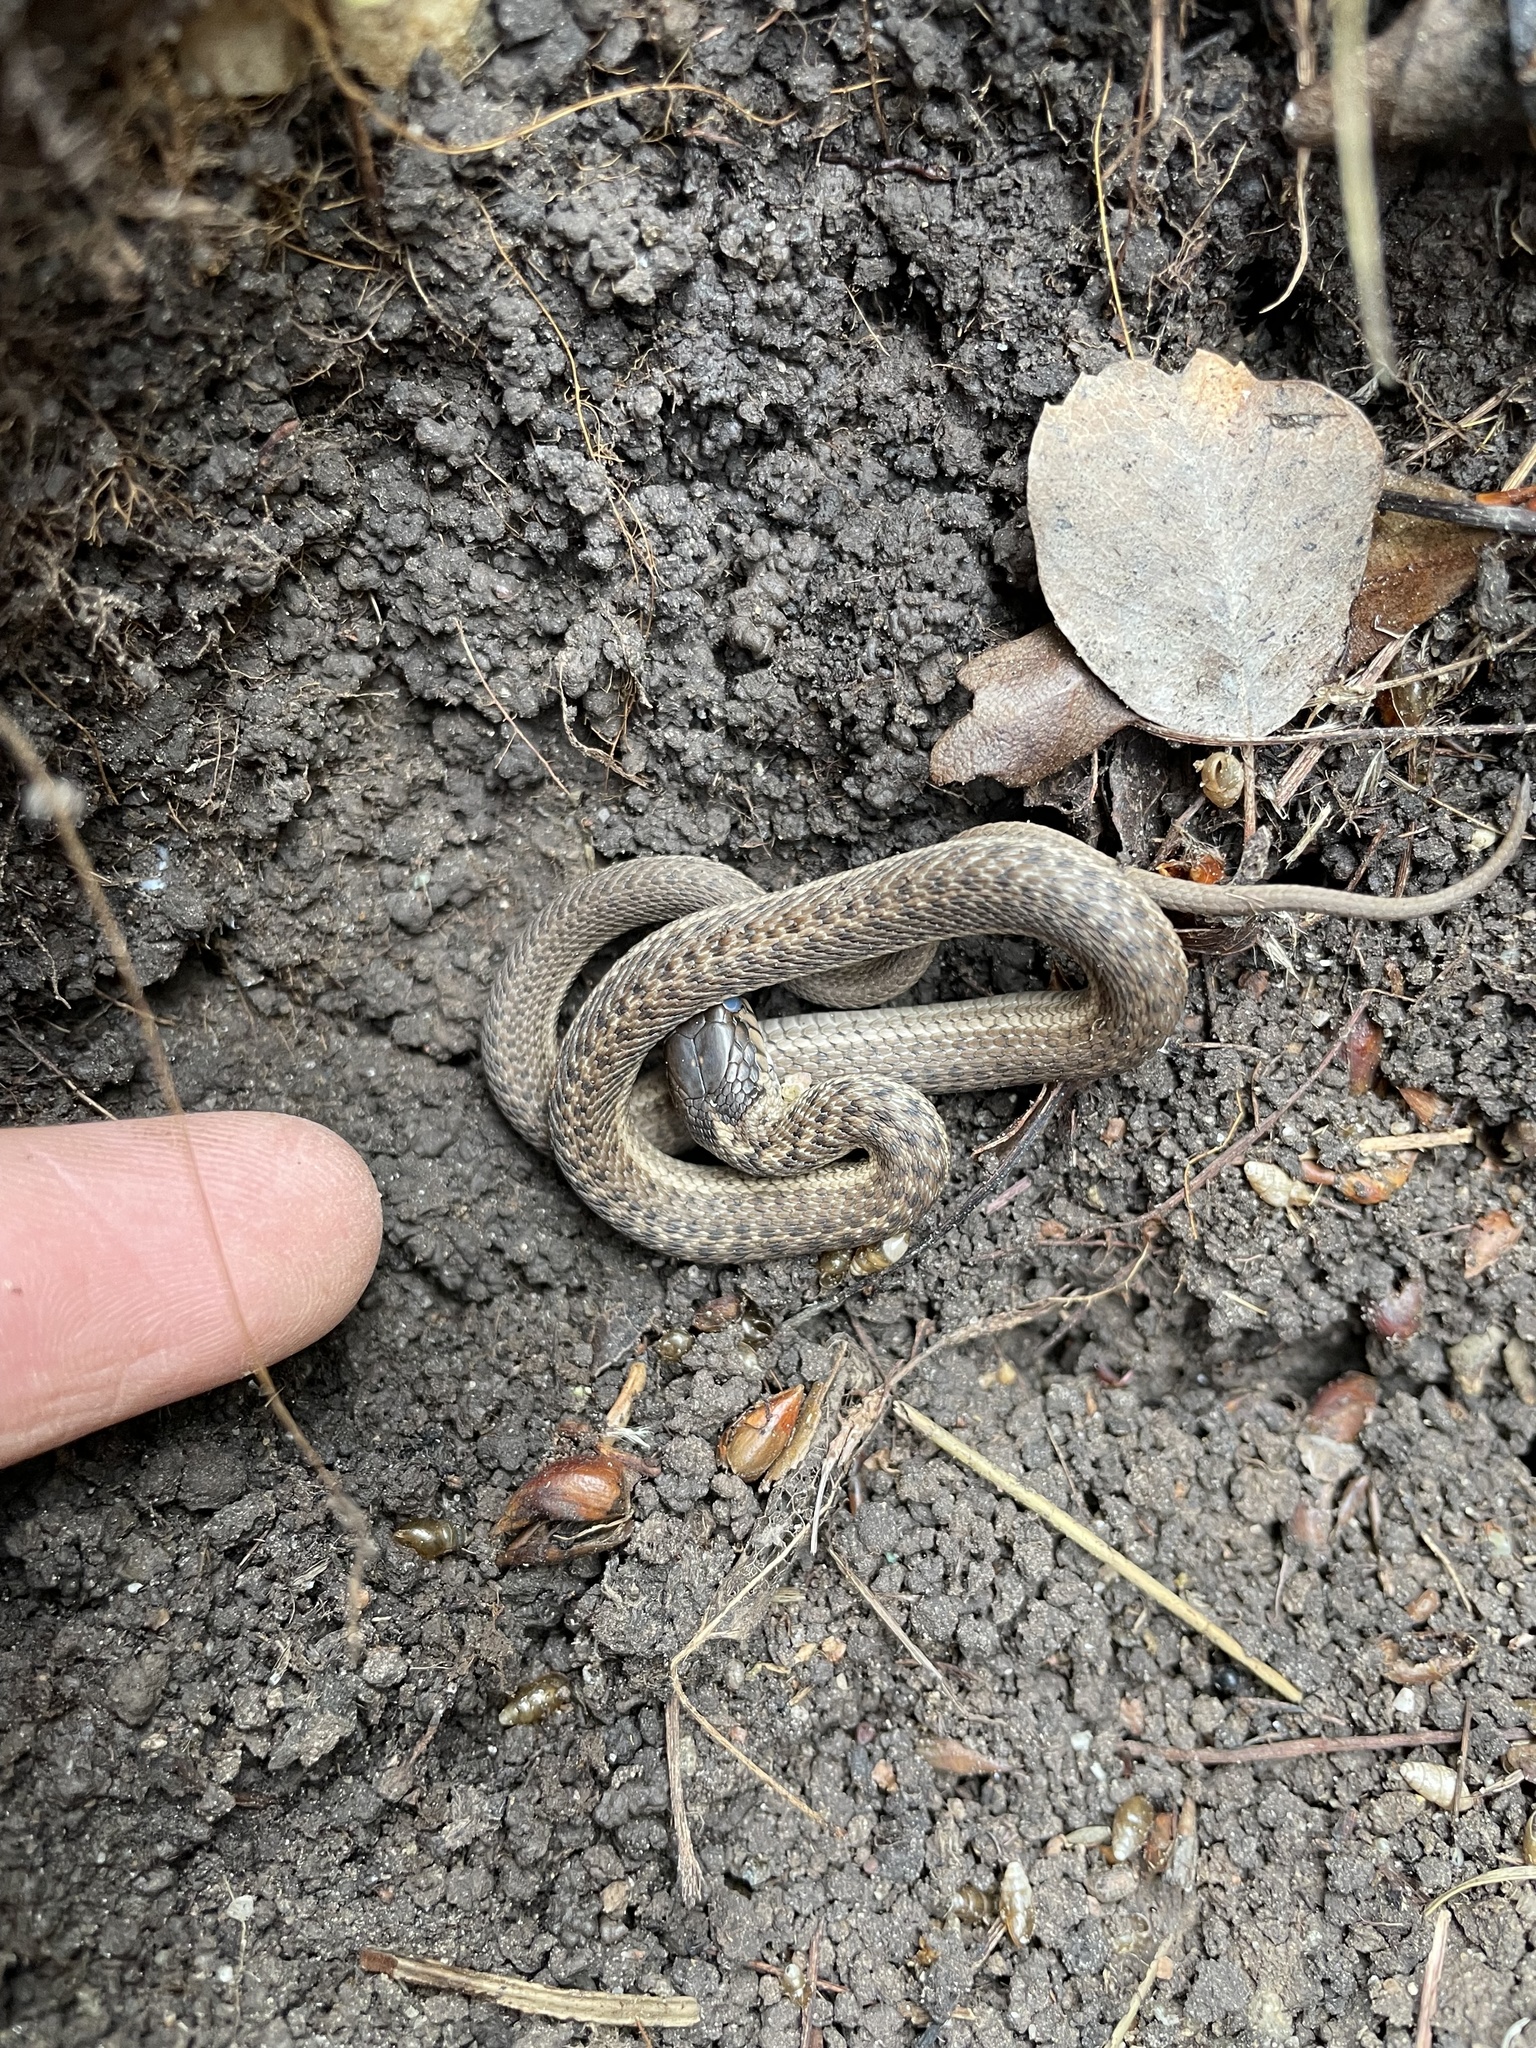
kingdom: Animalia
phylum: Chordata
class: Squamata
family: Colubridae
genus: Thamnophis
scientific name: Thamnophis elegans
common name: Western terrestrial garter snake
